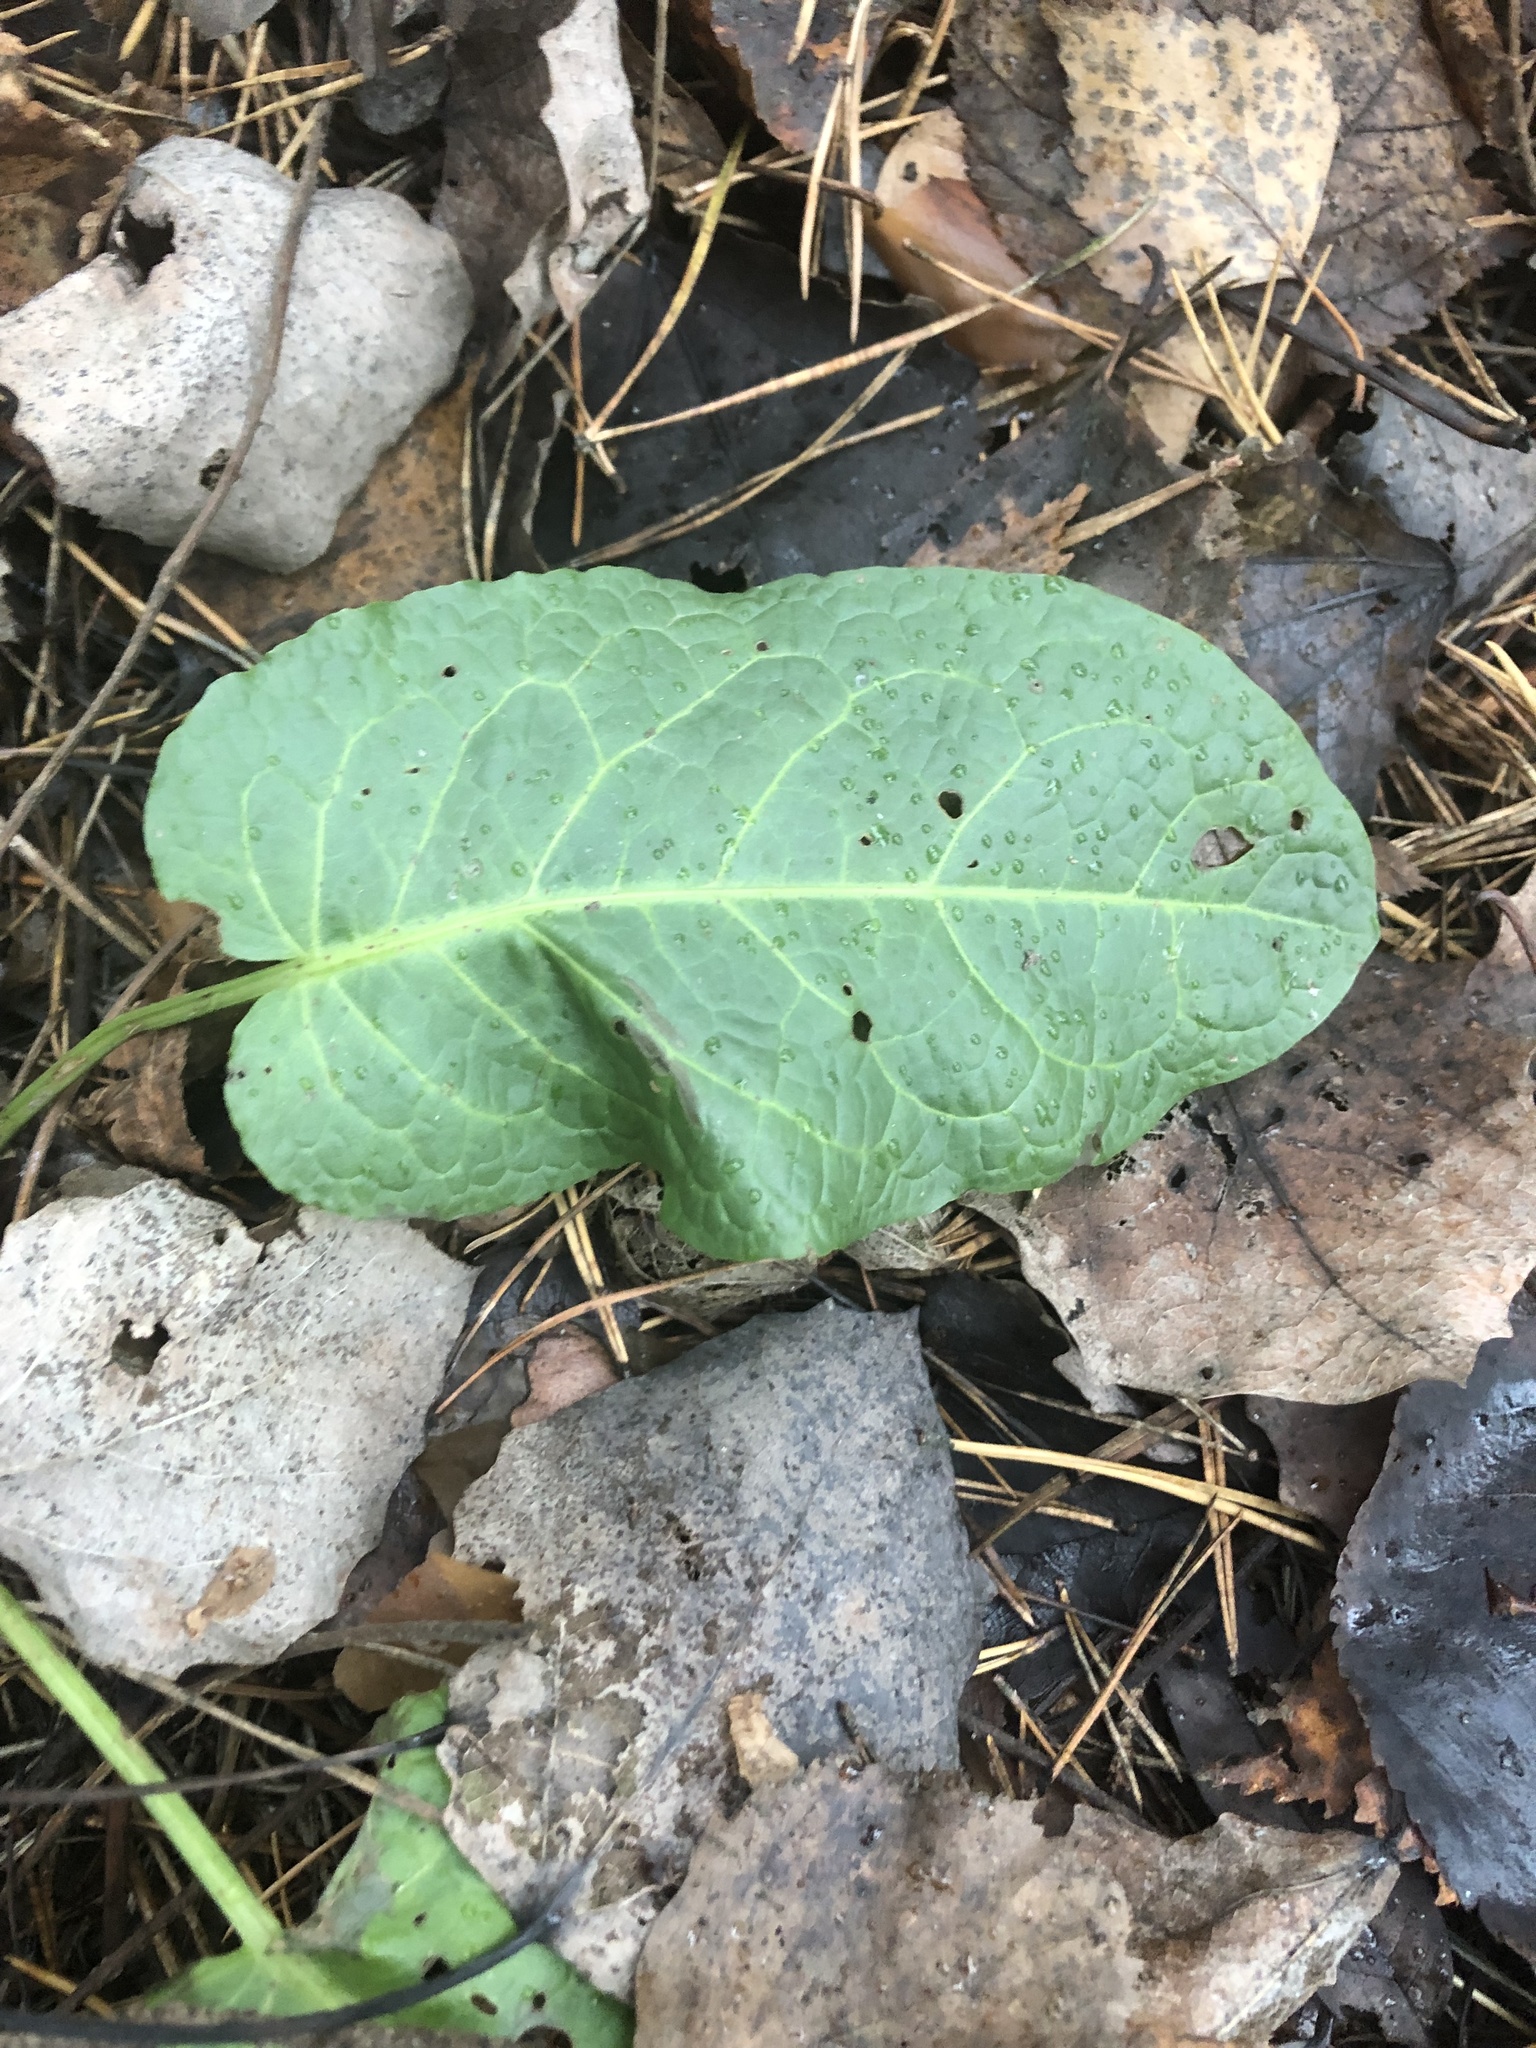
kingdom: Plantae
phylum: Tracheophyta
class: Magnoliopsida
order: Caryophyllales
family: Polygonaceae
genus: Rumex
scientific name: Rumex obtusifolius
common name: Bitter dock
